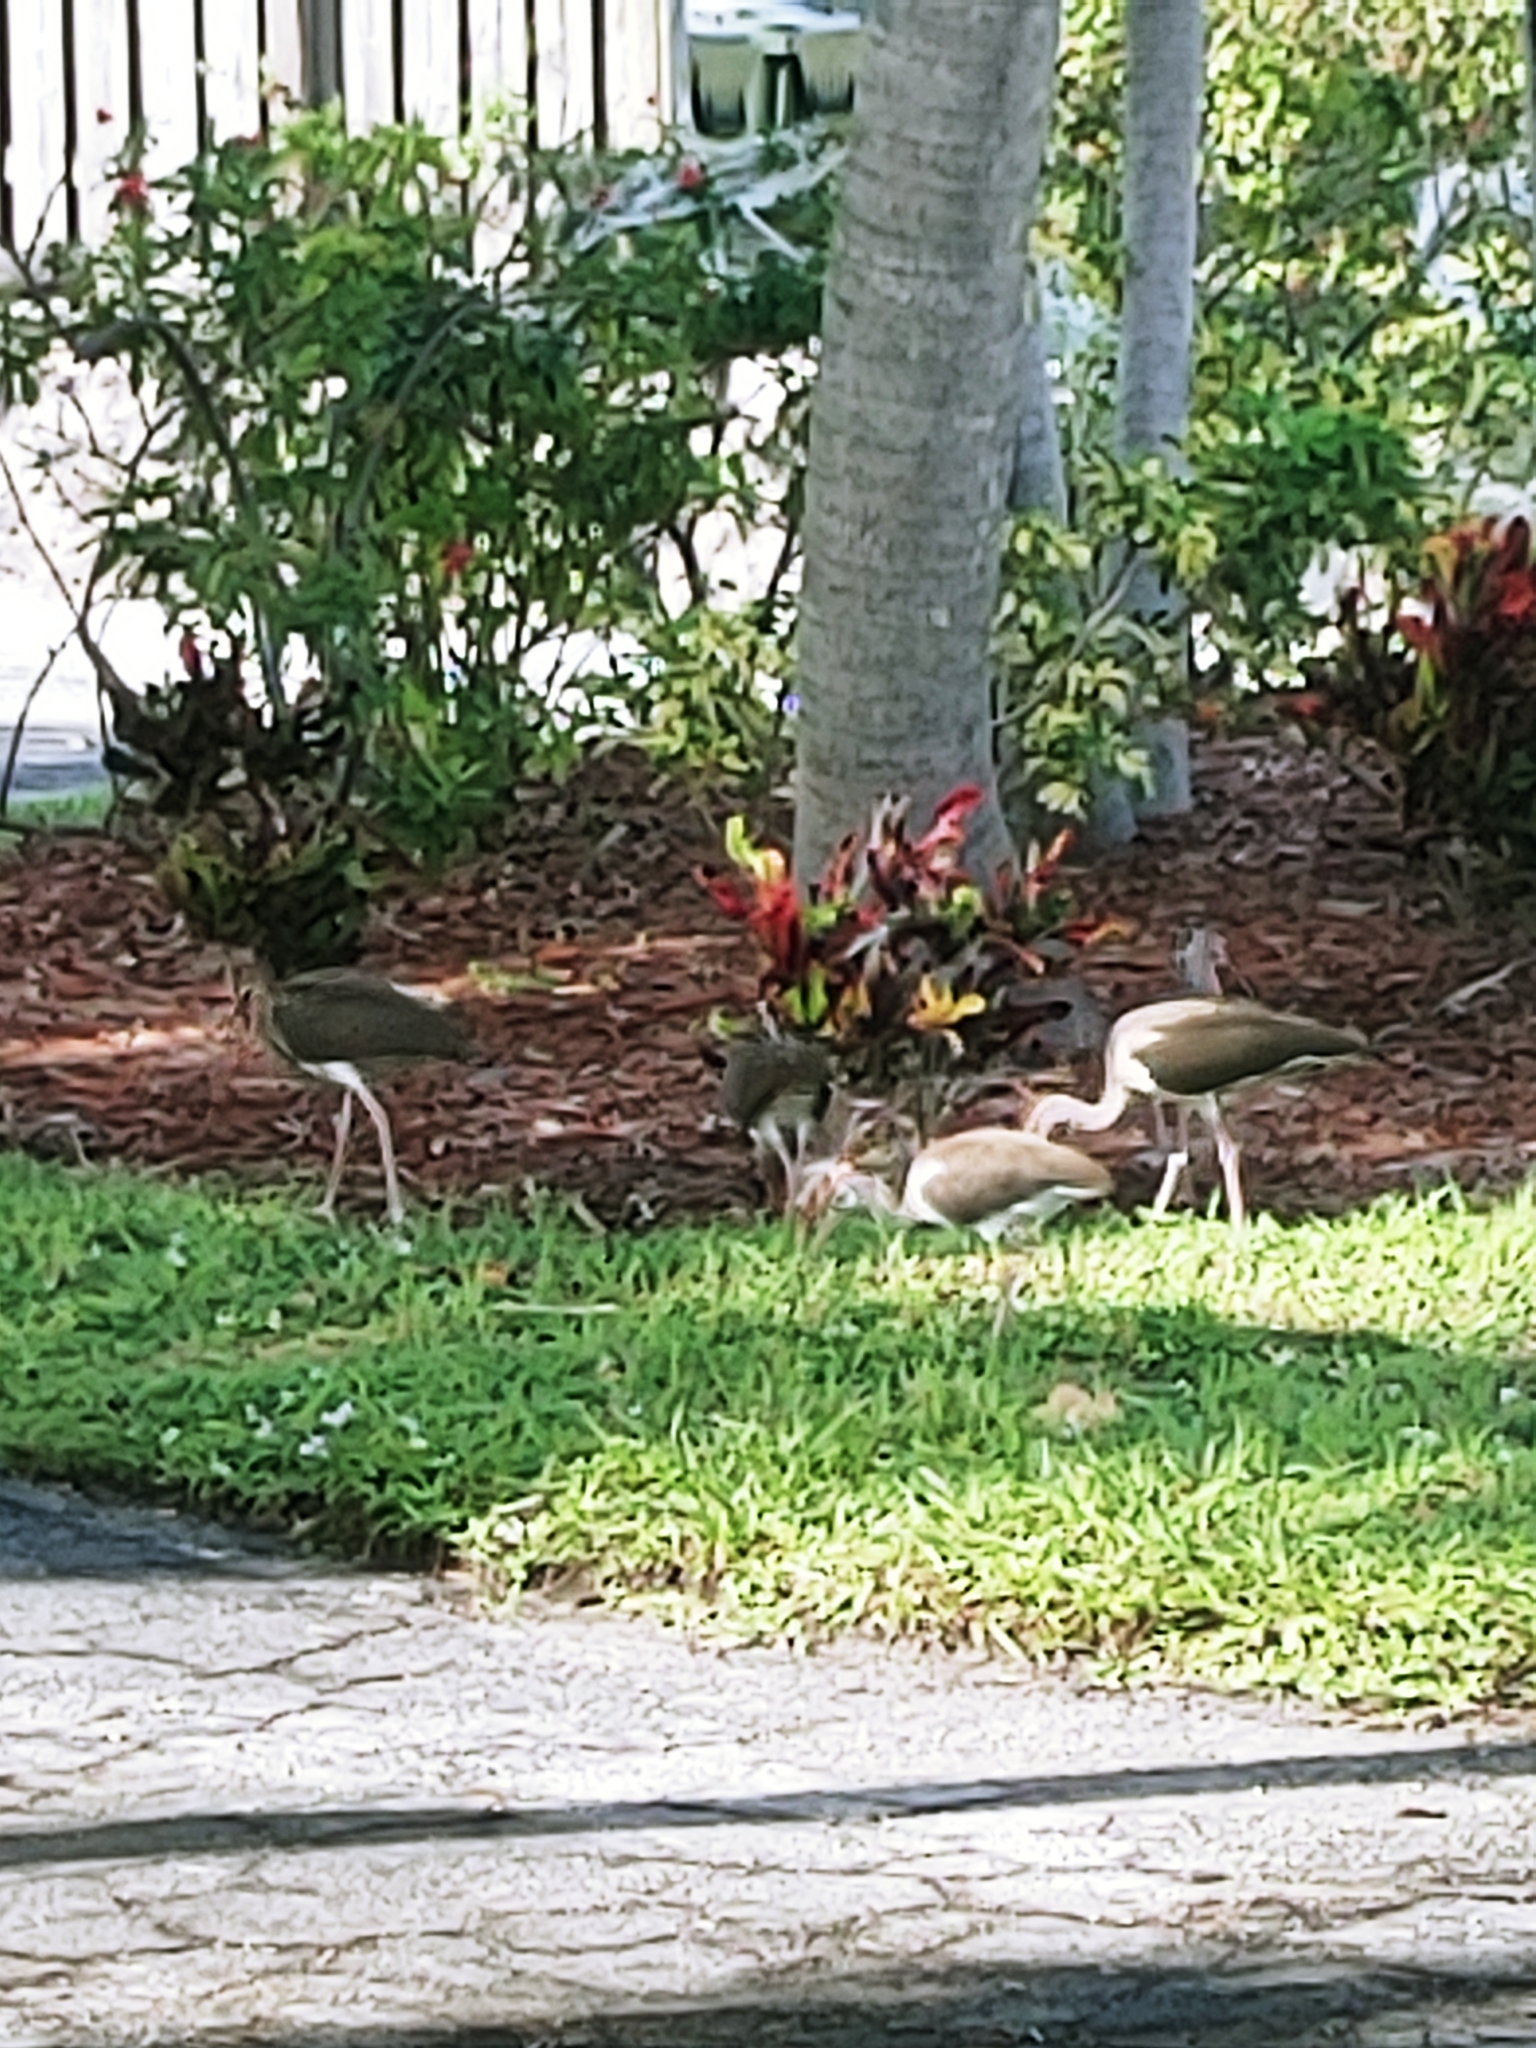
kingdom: Animalia
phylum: Chordata
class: Aves
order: Pelecaniformes
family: Threskiornithidae
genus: Eudocimus
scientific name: Eudocimus albus
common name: White ibis
